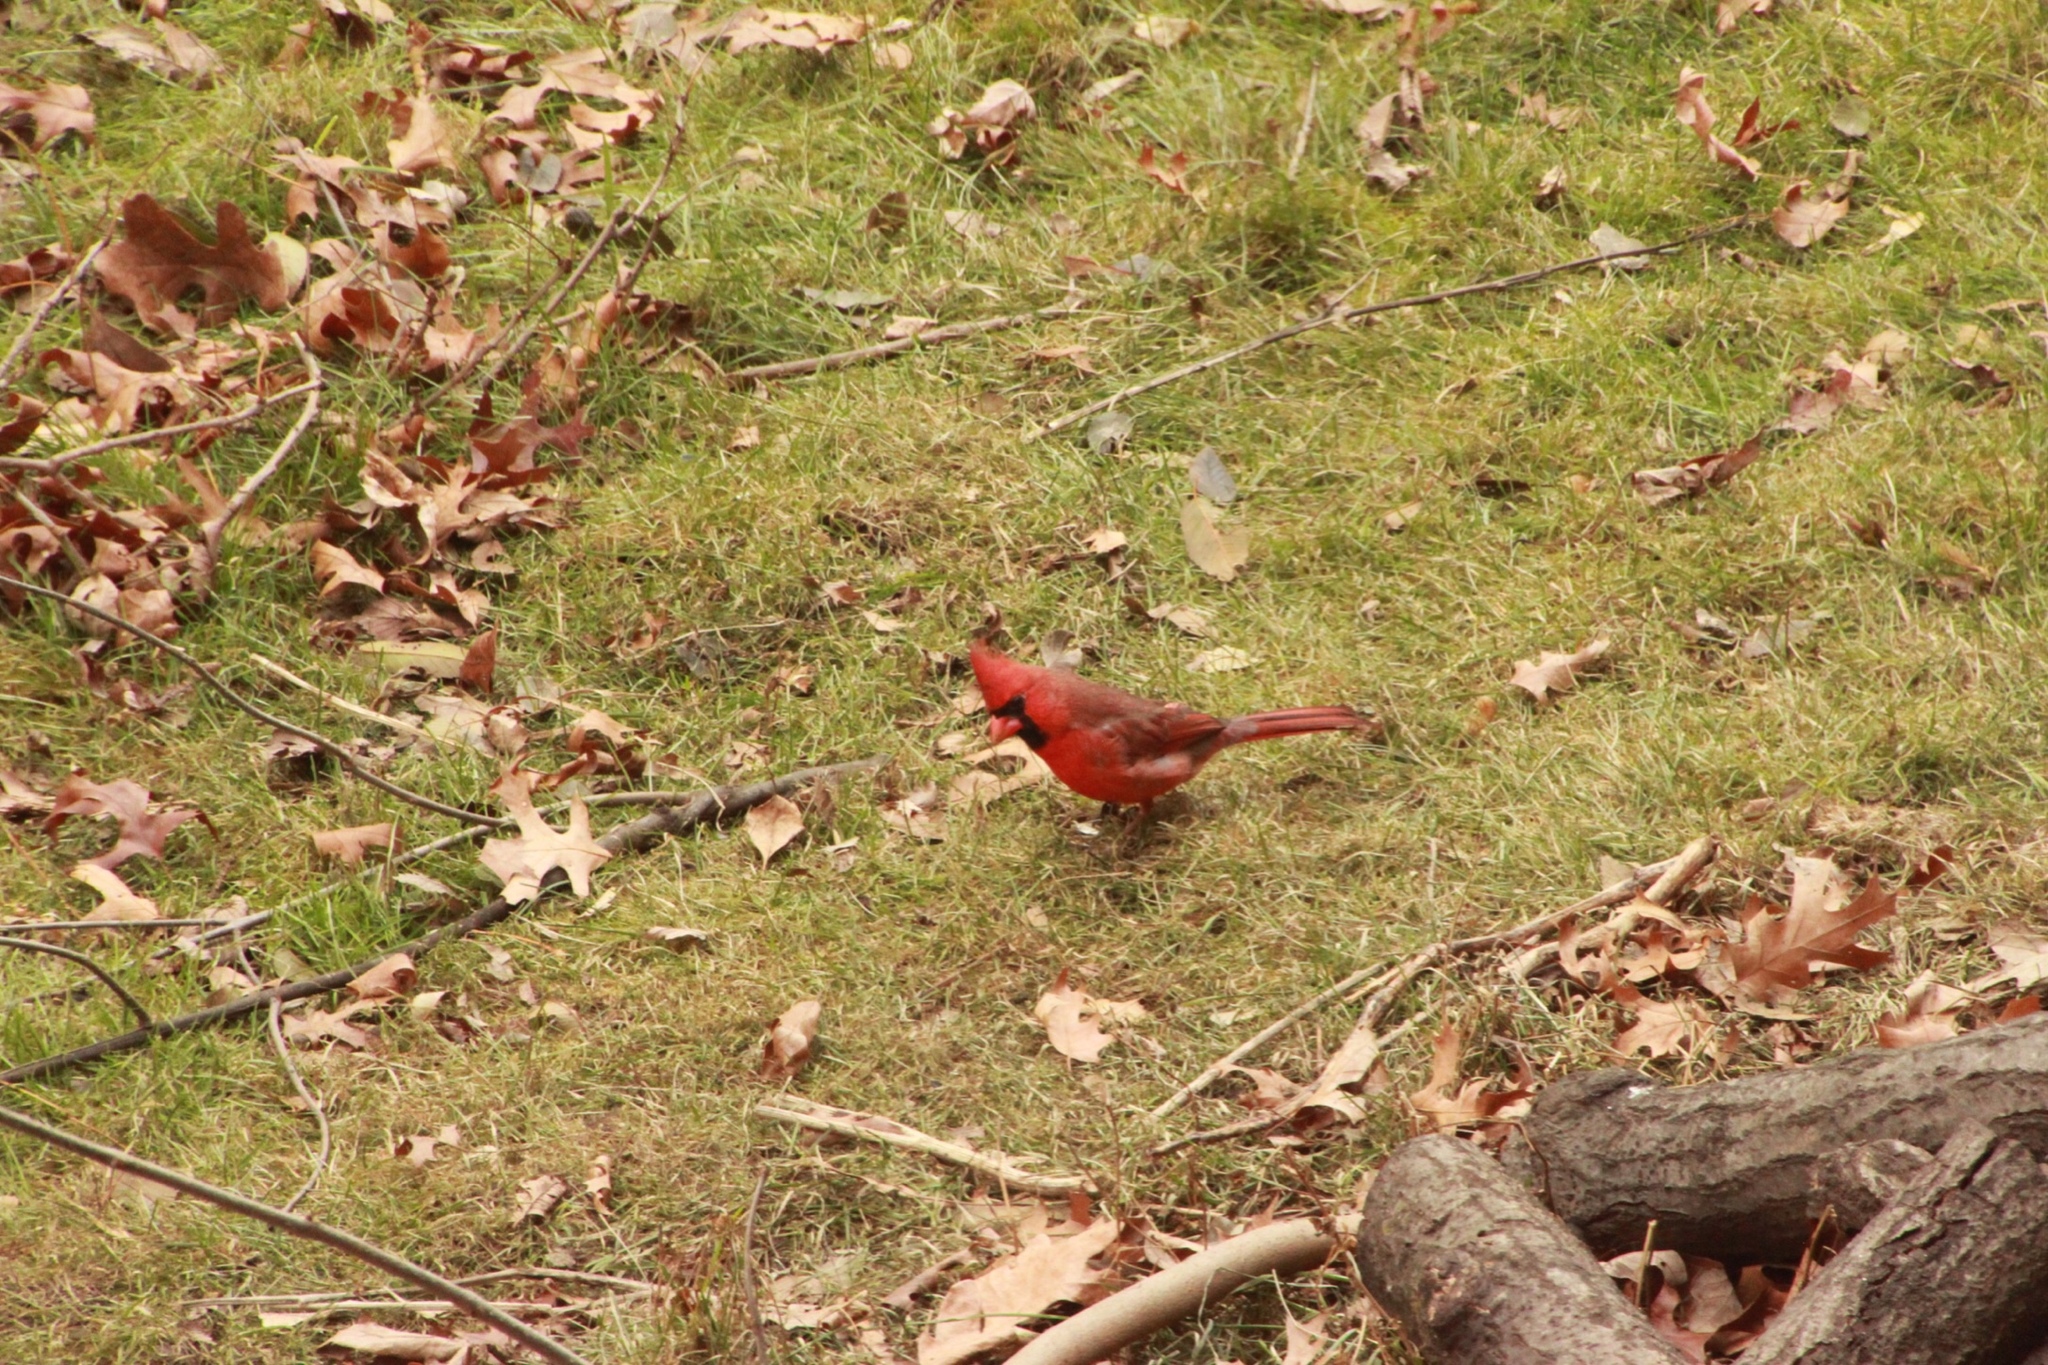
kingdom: Animalia
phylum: Chordata
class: Aves
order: Passeriformes
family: Cardinalidae
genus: Cardinalis
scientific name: Cardinalis cardinalis
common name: Northern cardinal
